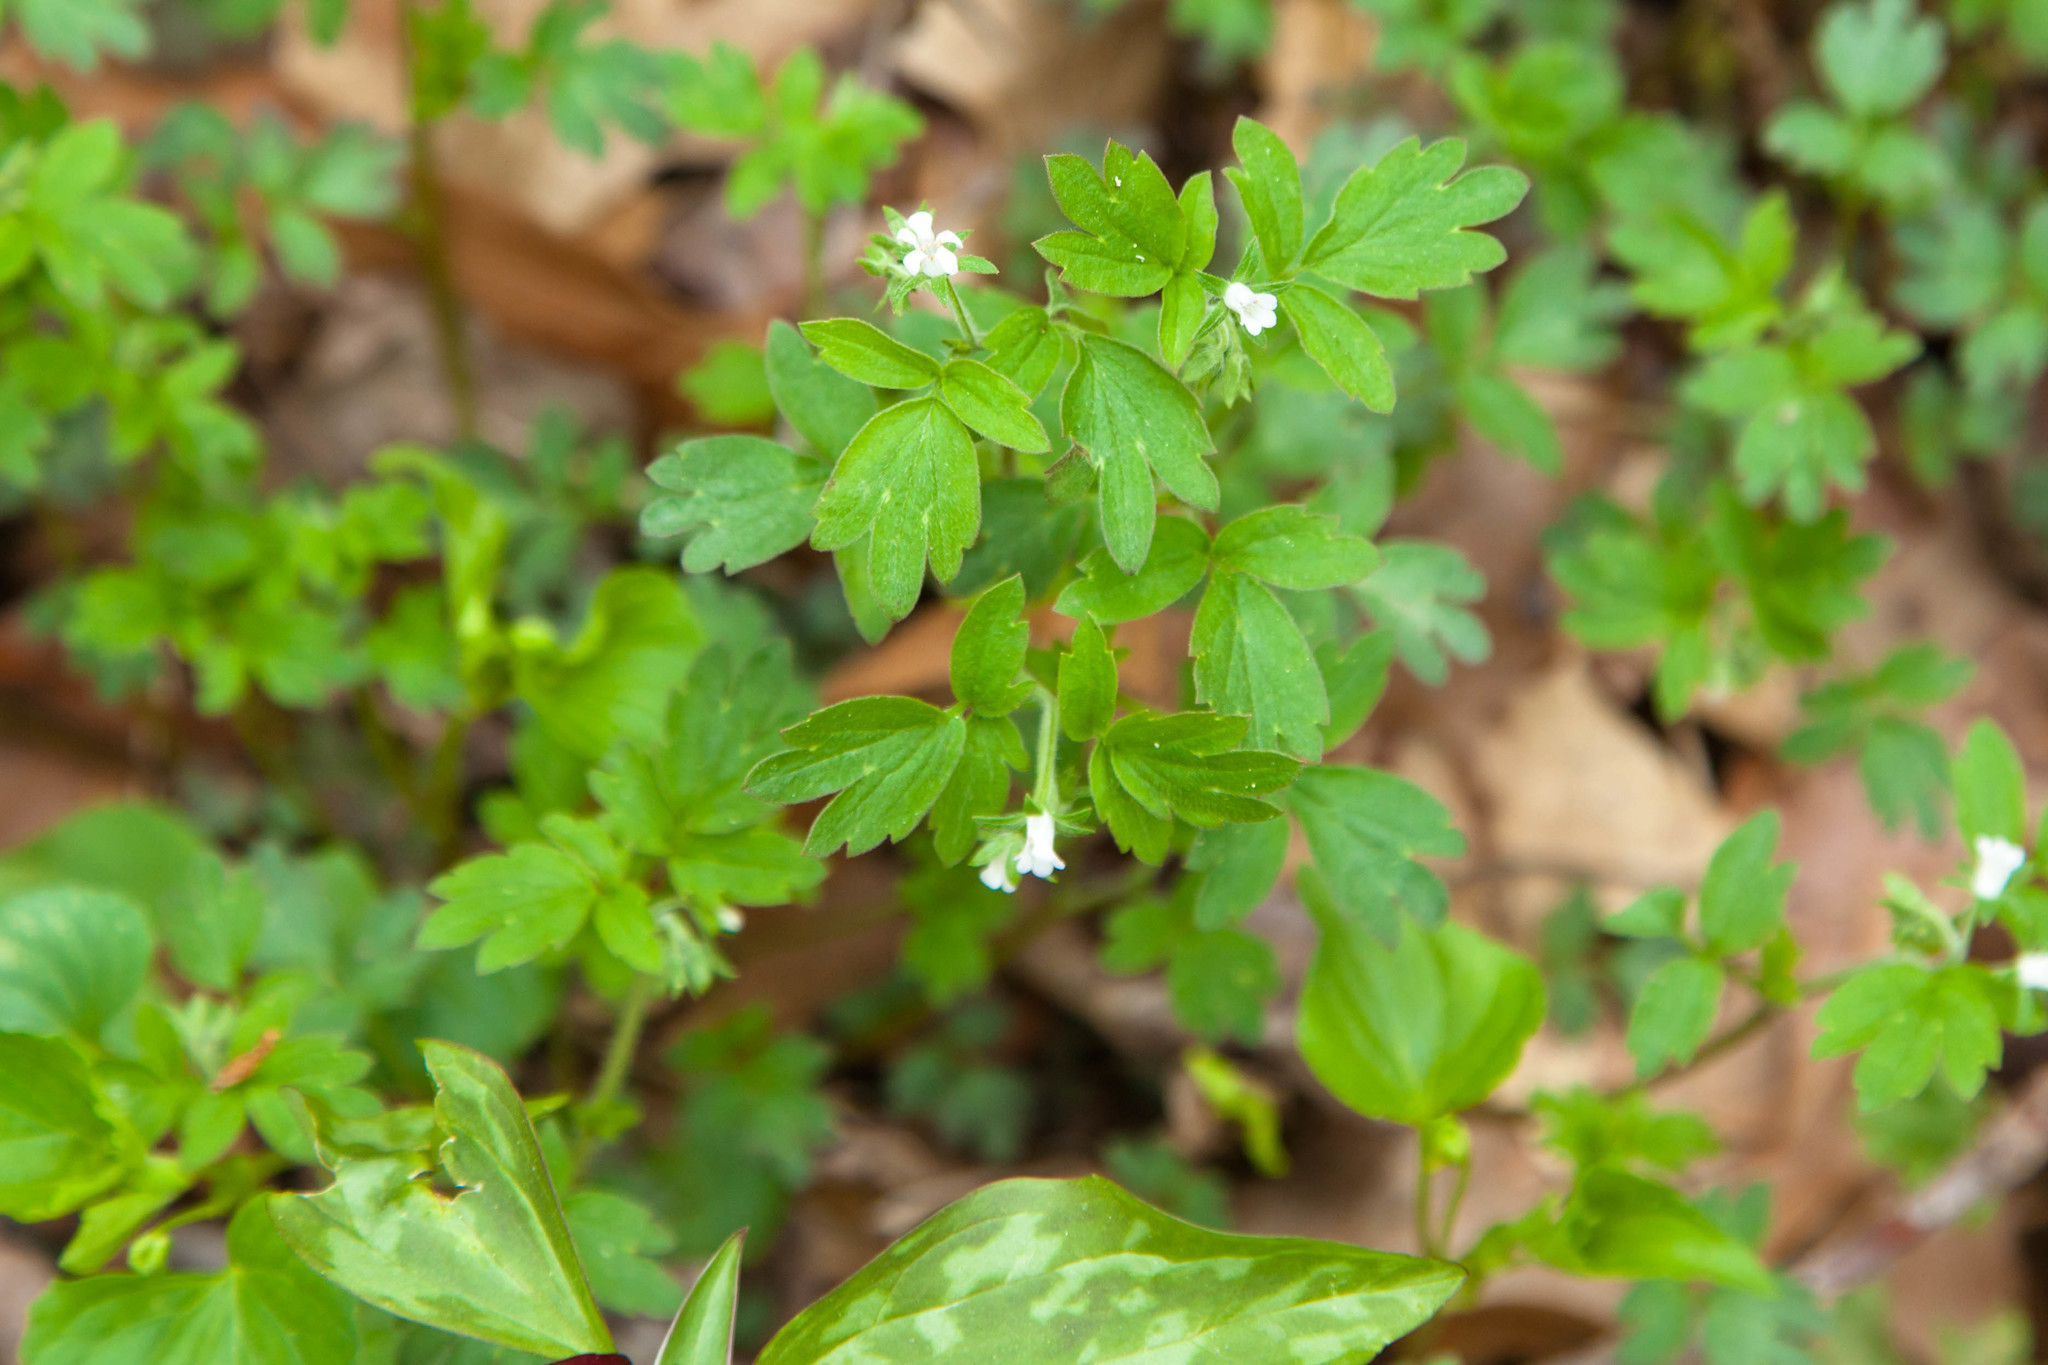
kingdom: Plantae
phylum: Tracheophyta
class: Magnoliopsida
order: Boraginales
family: Hydrophyllaceae
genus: Phacelia
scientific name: Phacelia ranunculacea
